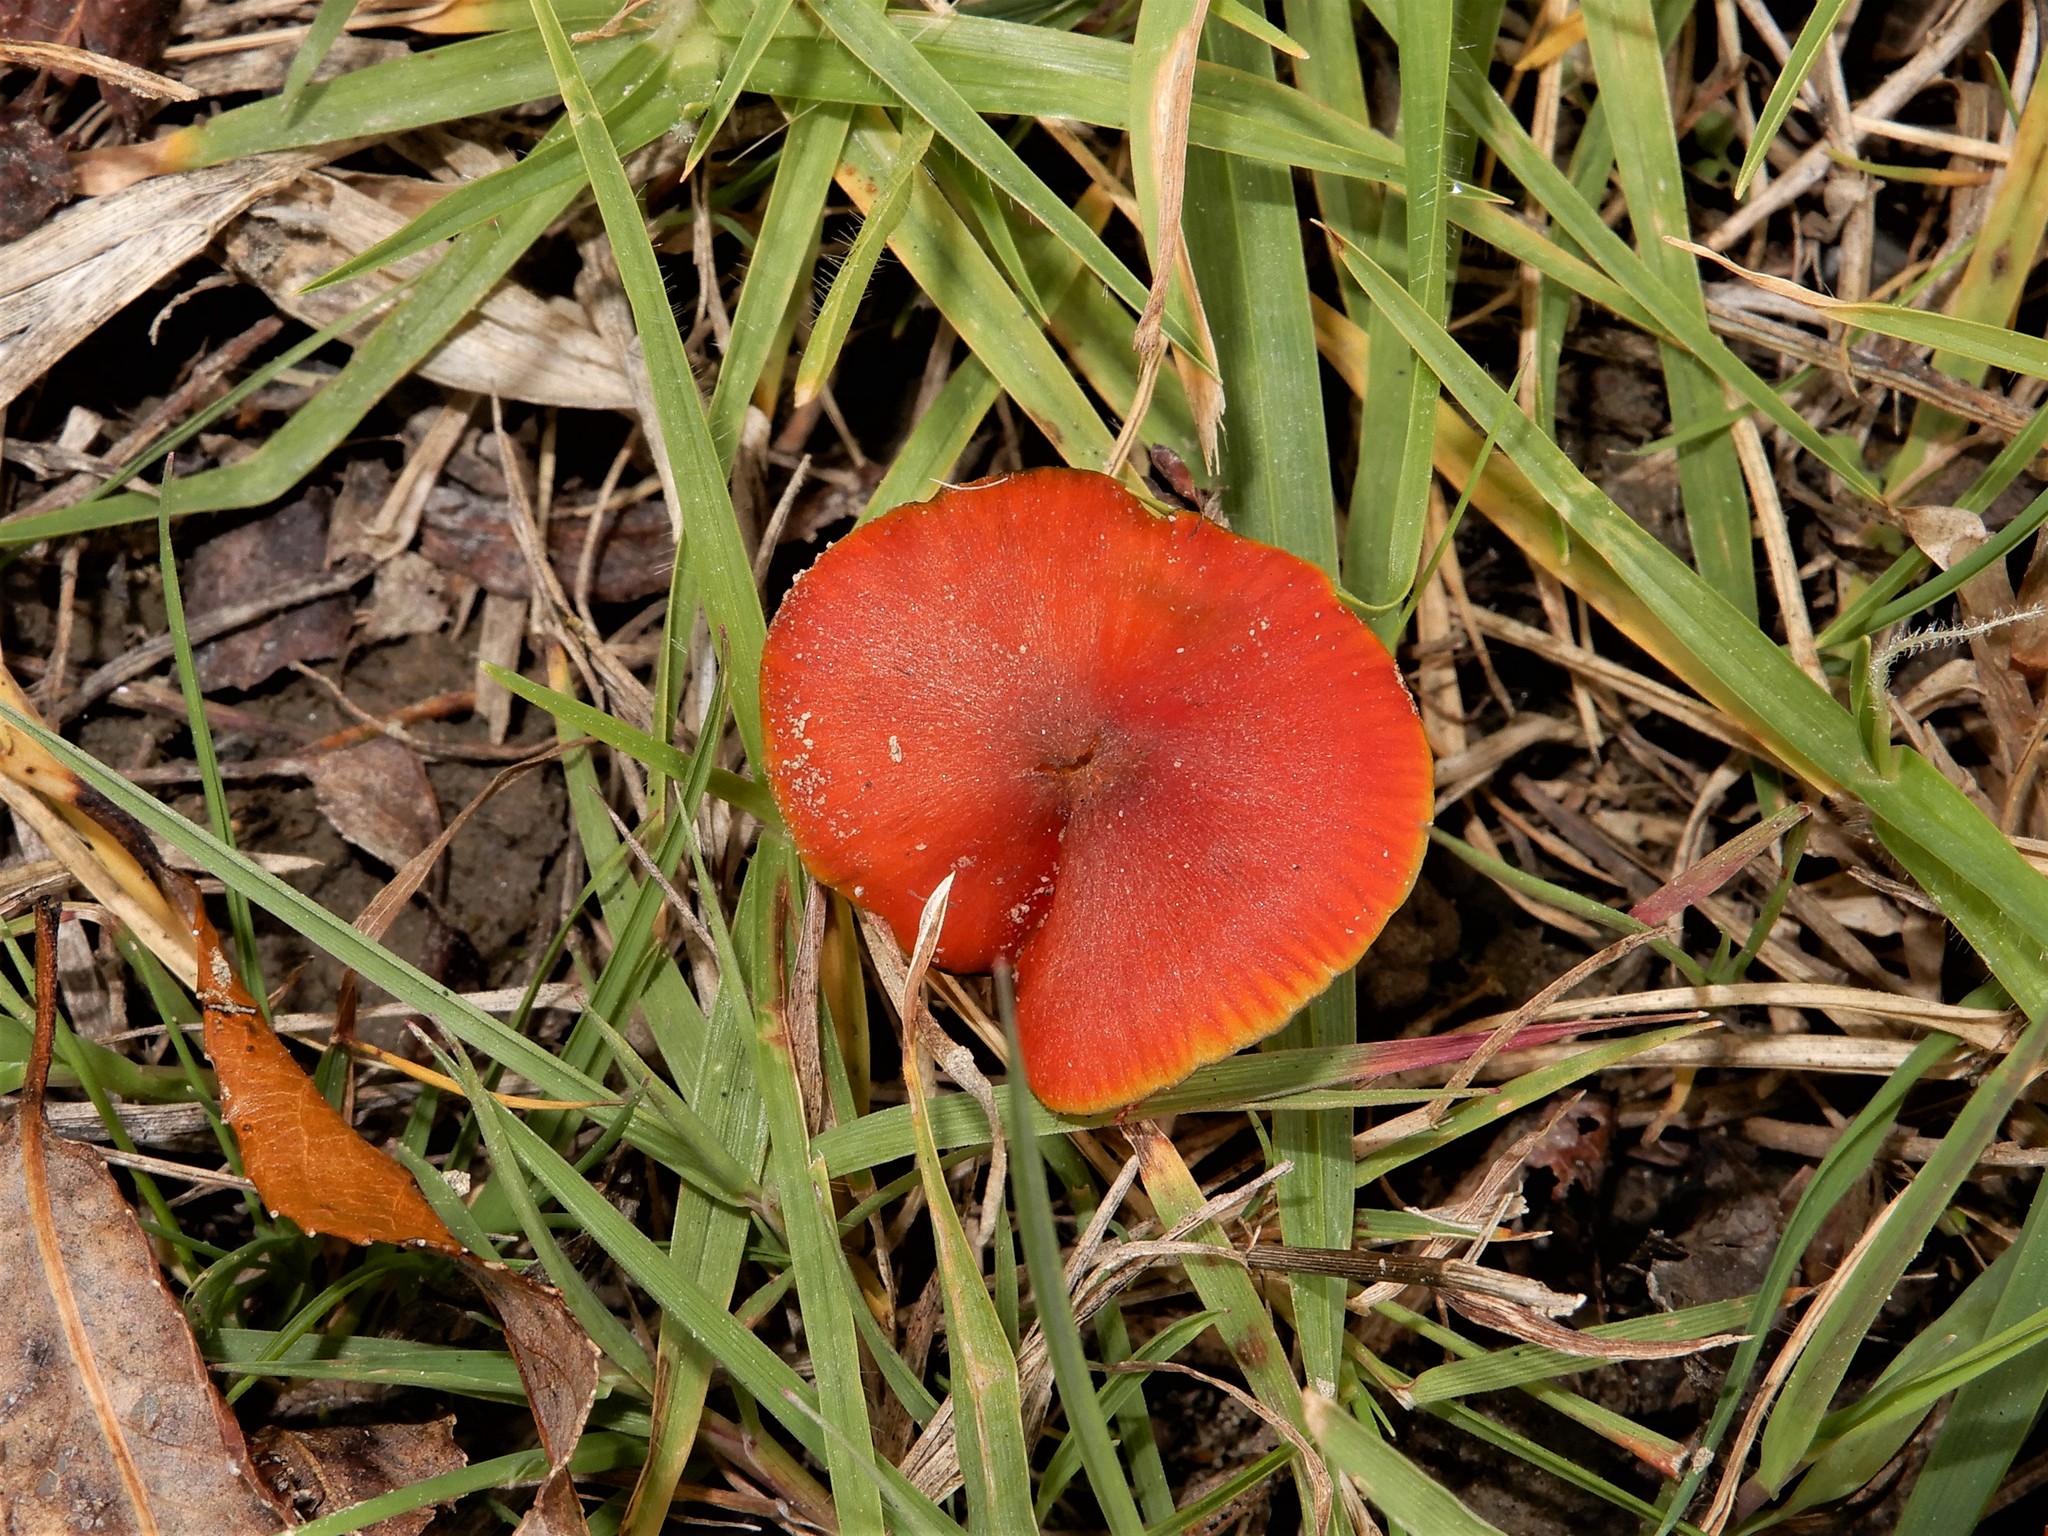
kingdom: Fungi
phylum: Basidiomycota
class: Agaricomycetes
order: Agaricales
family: Hygrophoraceae
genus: Hygrocybe
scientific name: Hygrocybe conica
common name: Blackening wax-cap
